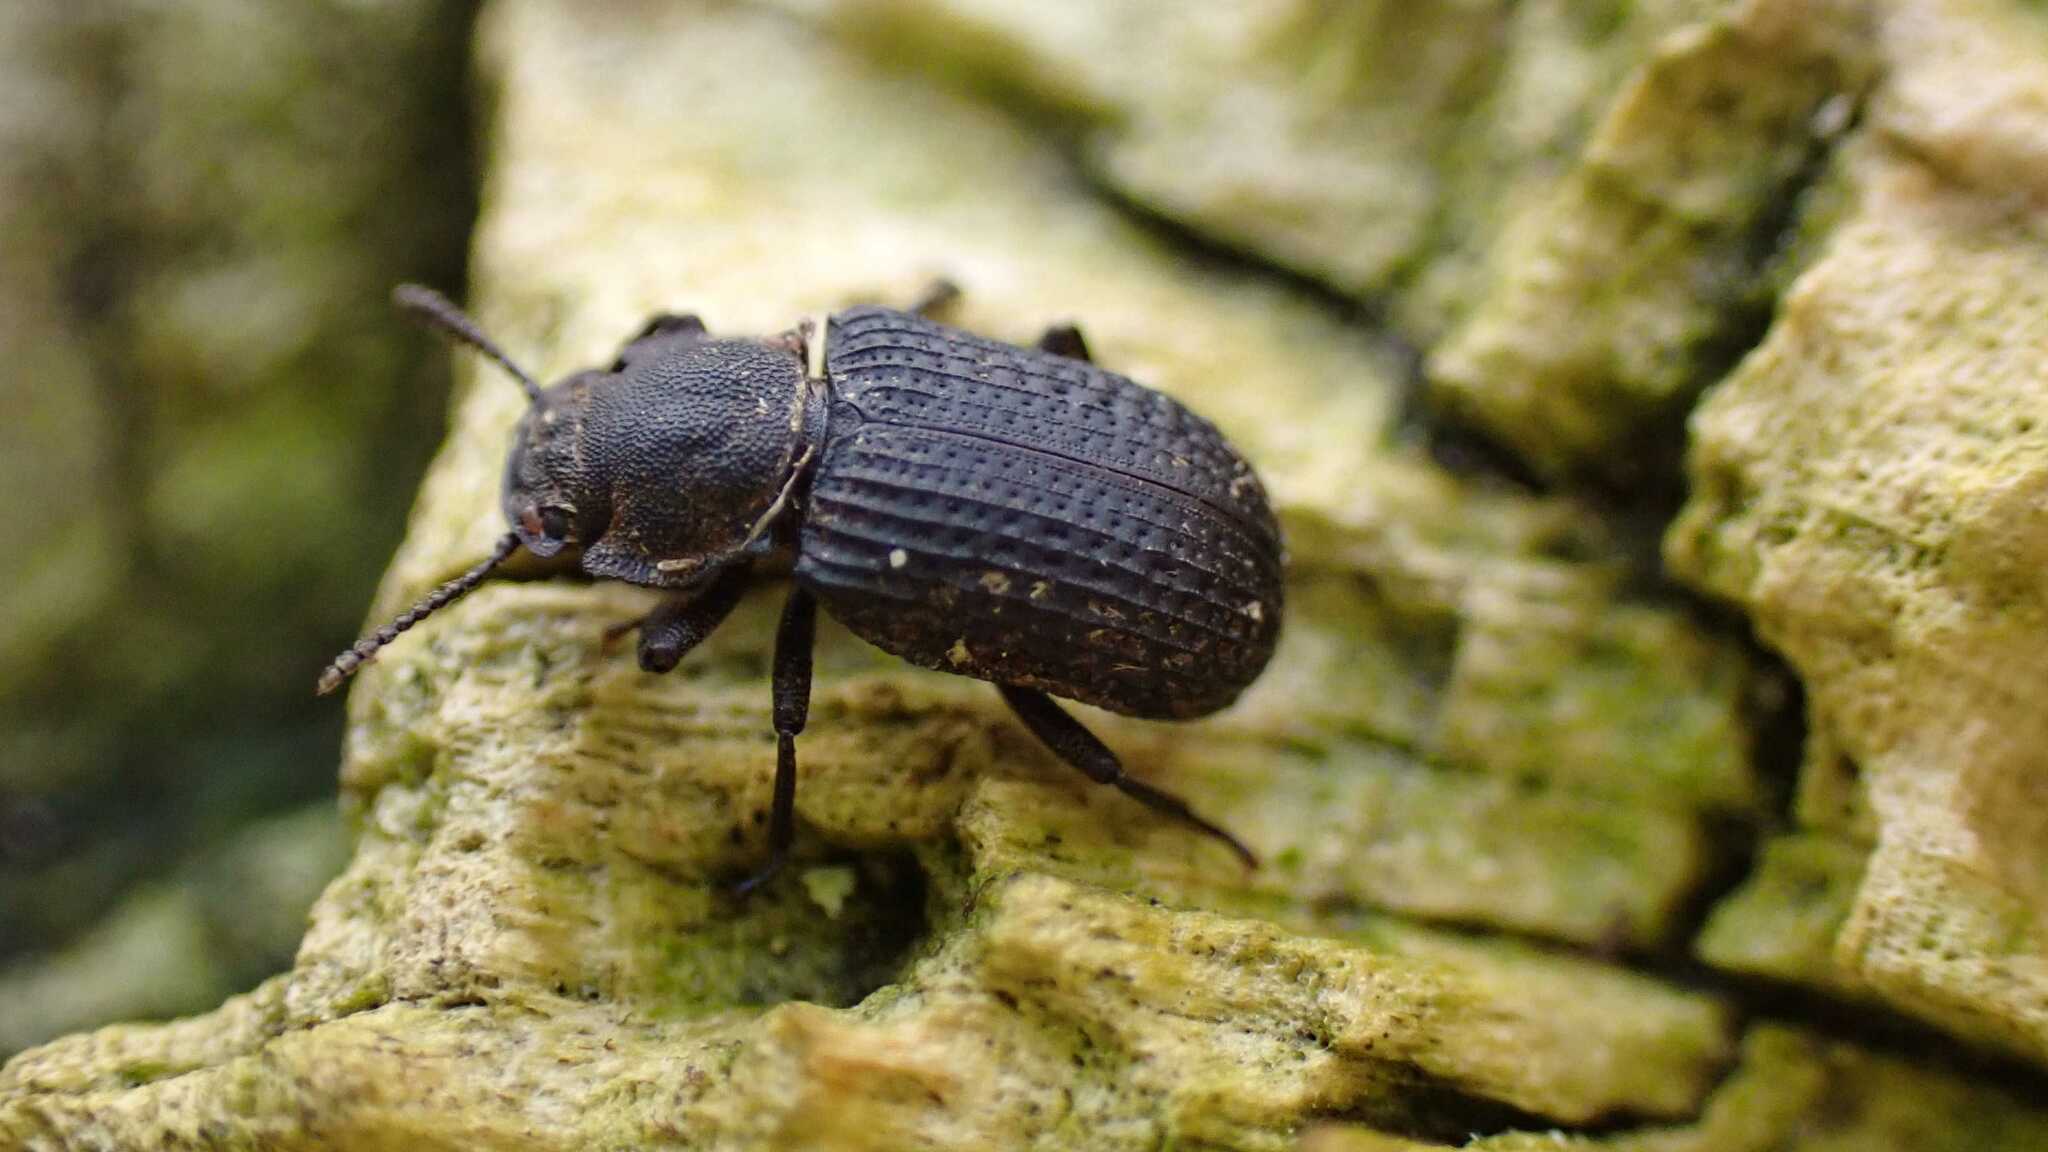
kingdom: Animalia
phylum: Arthropoda
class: Insecta
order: Coleoptera
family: Tenebrionidae
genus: Bolitophagus
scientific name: Bolitophagus reticulatus
